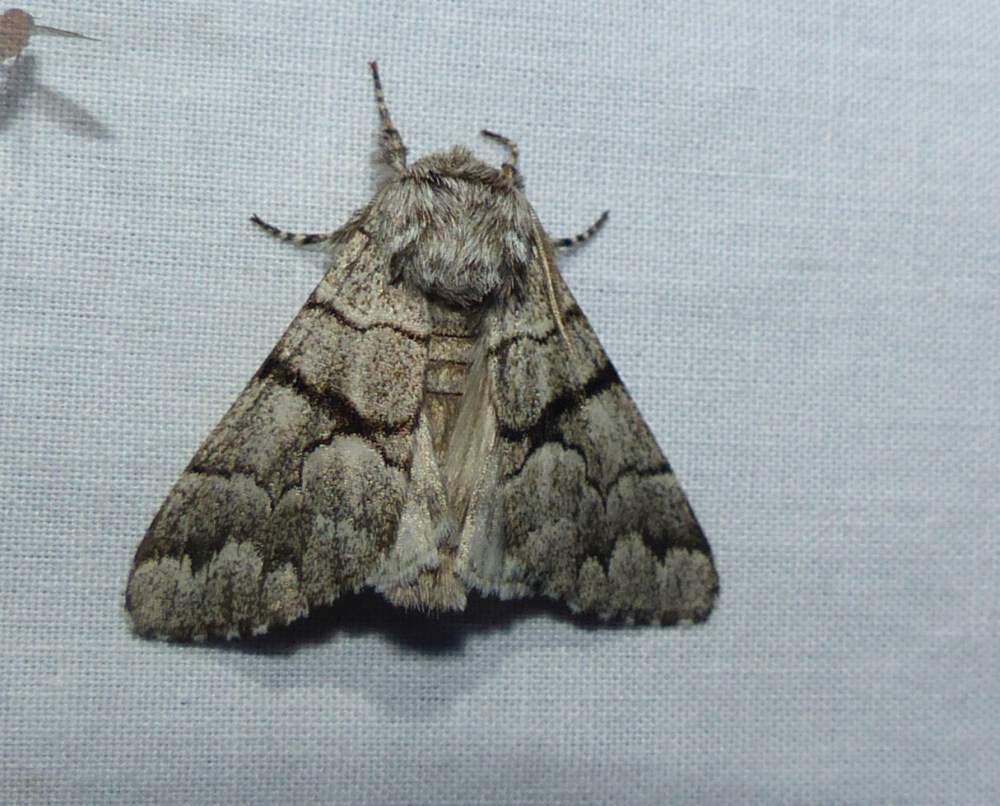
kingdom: Animalia
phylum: Arthropoda
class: Insecta
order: Lepidoptera
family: Noctuidae
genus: Panthea
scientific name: Panthea furcilla
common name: Eastern panthea moth
